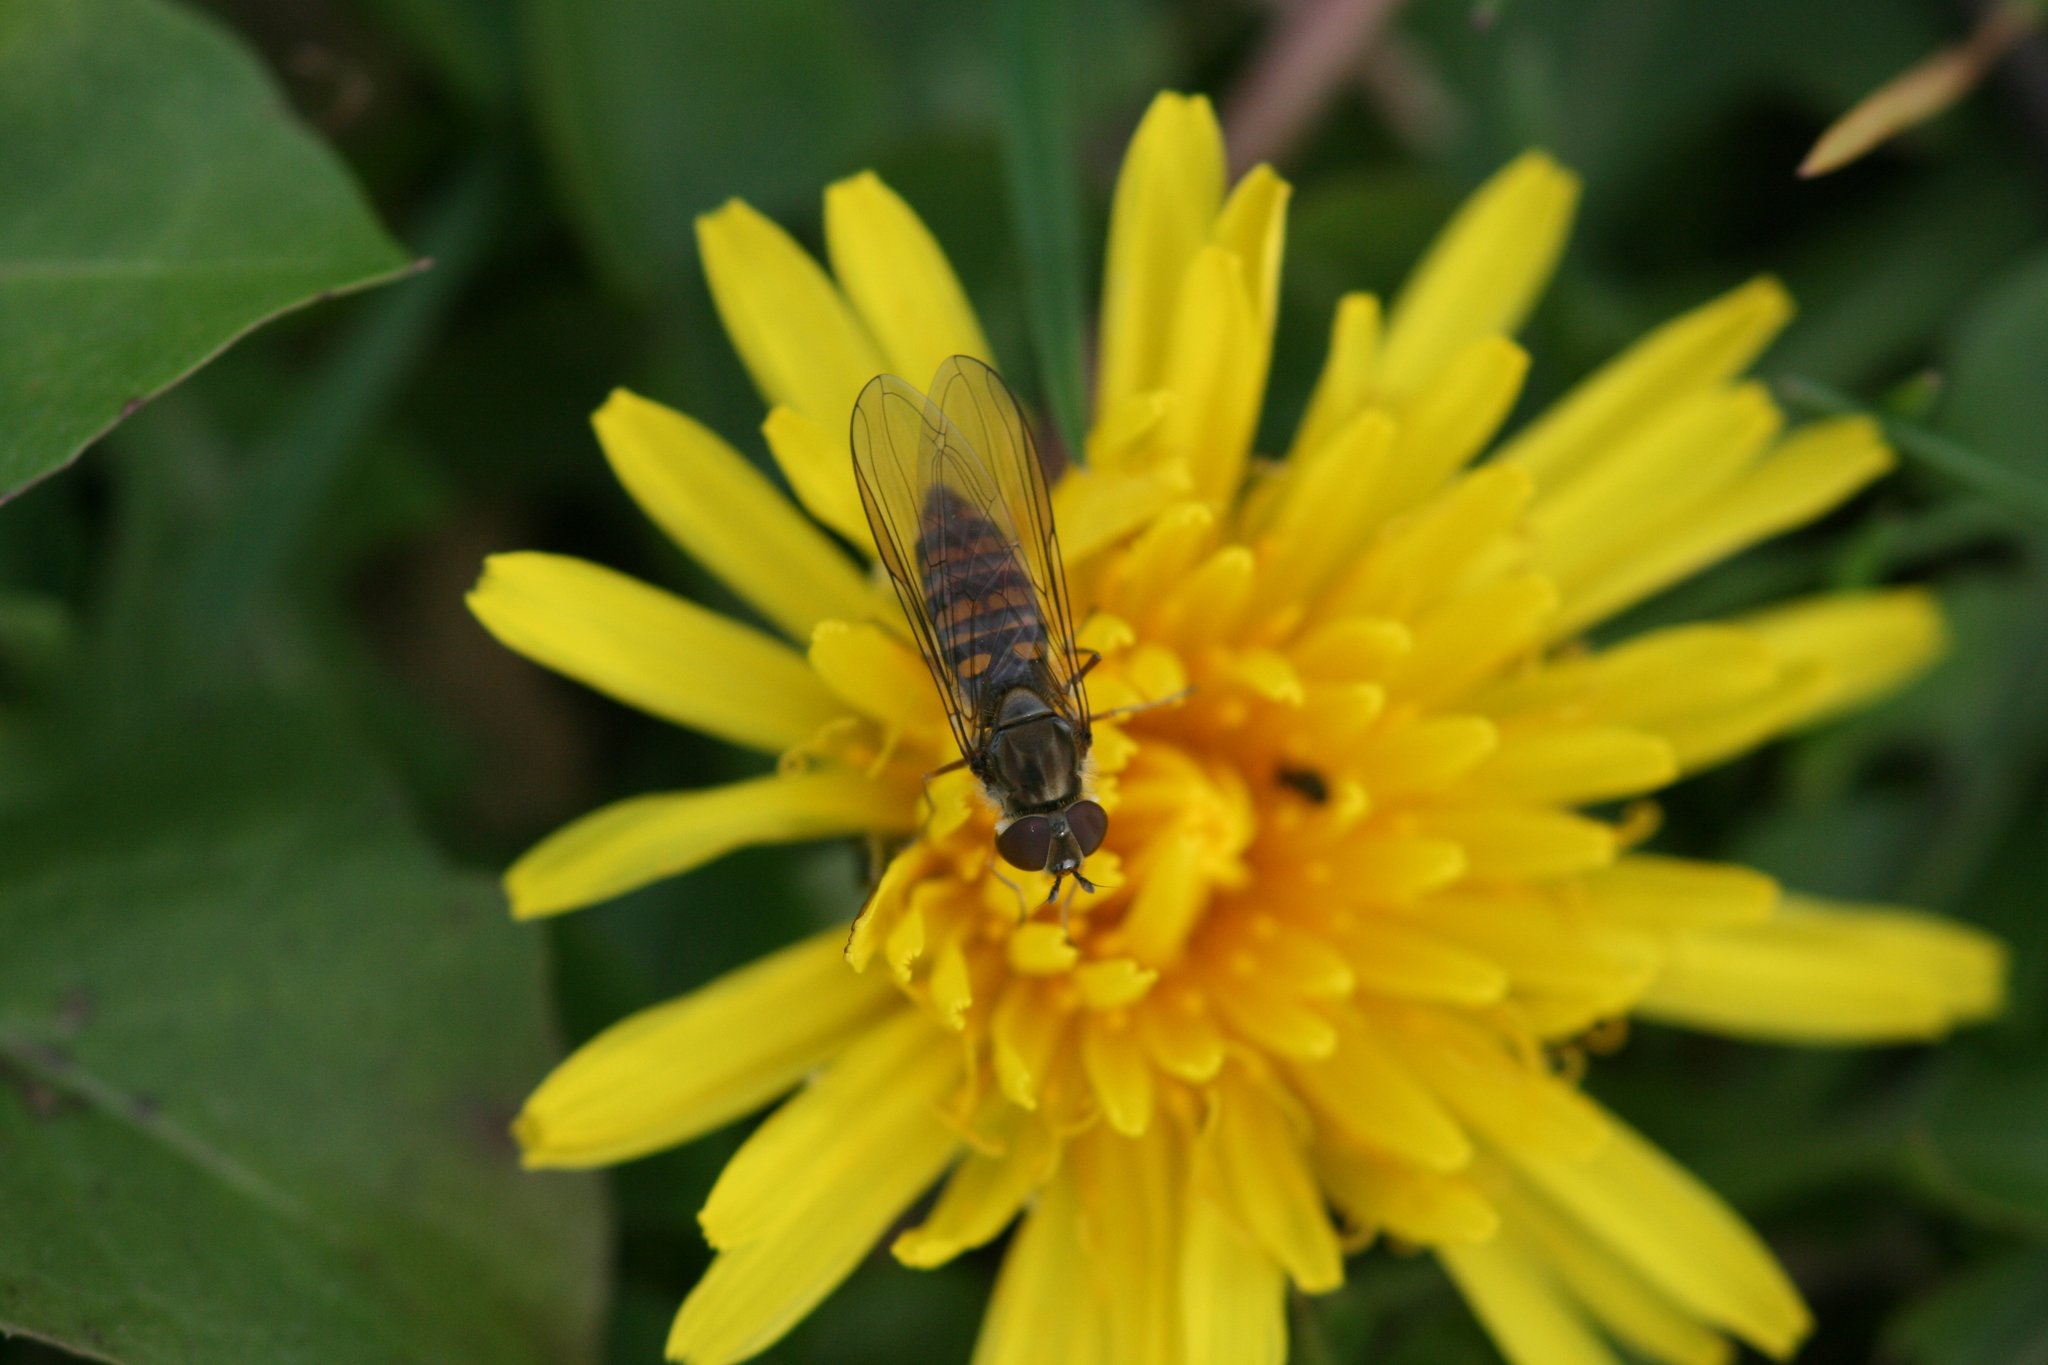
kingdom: Animalia
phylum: Arthropoda
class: Insecta
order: Diptera
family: Syrphidae
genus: Episyrphus
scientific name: Episyrphus balteatus
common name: Marmalade hoverfly
